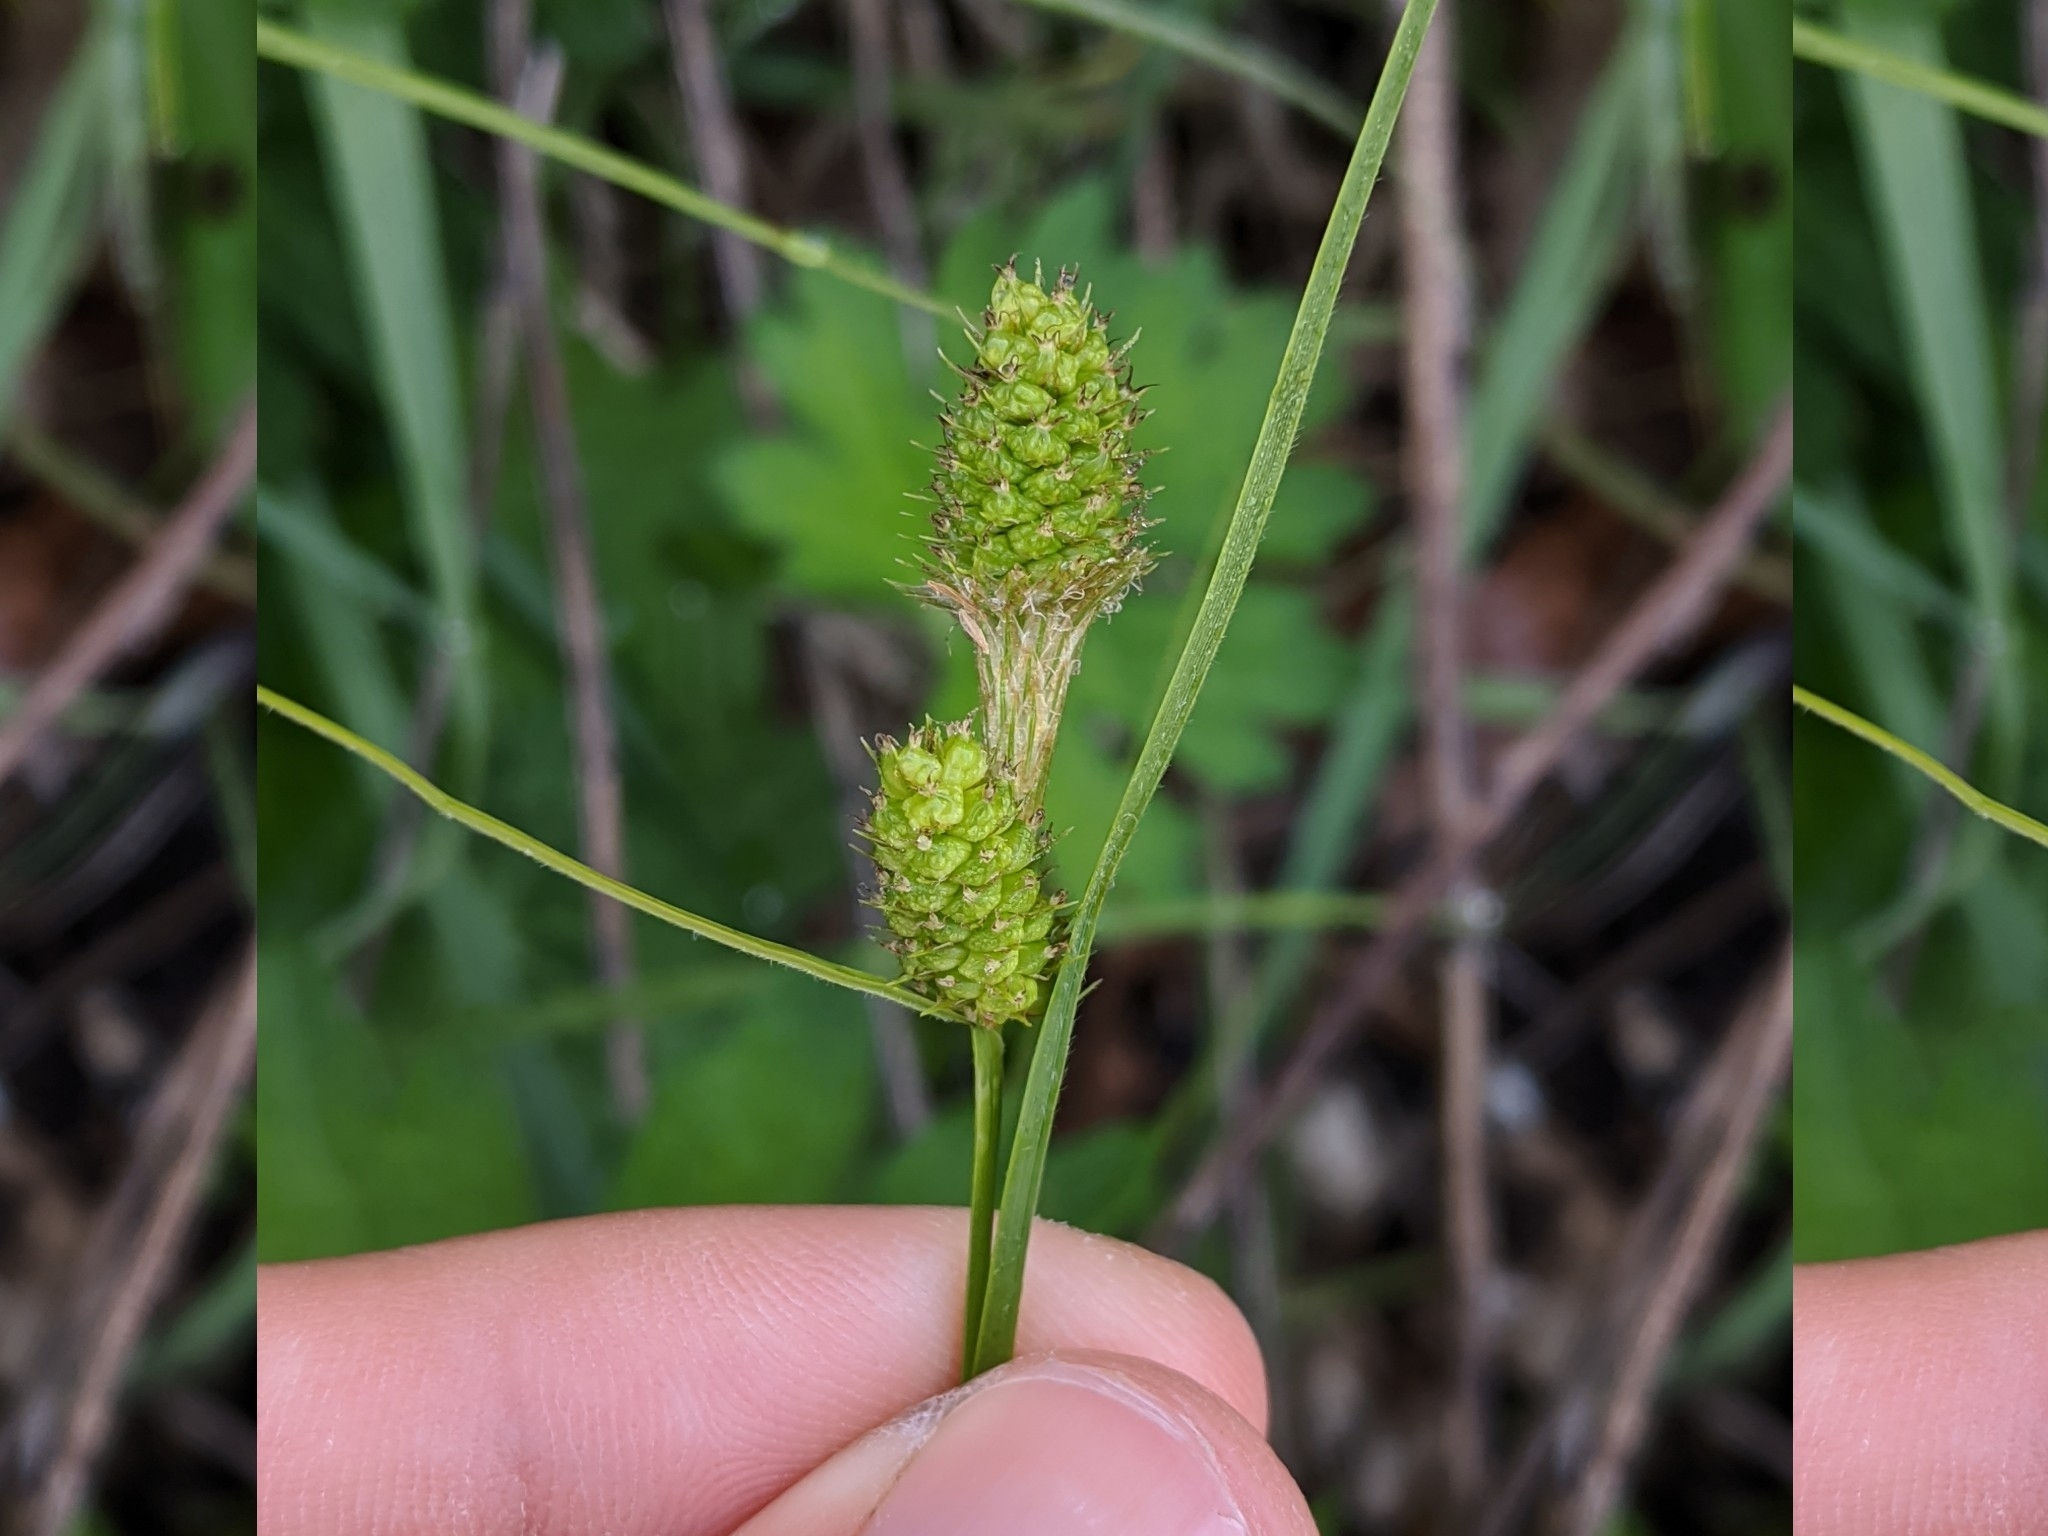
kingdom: Plantae
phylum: Tracheophyta
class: Liliopsida
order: Poales
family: Cyperaceae
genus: Carex
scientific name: Carex bushii
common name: Bush's sedge
